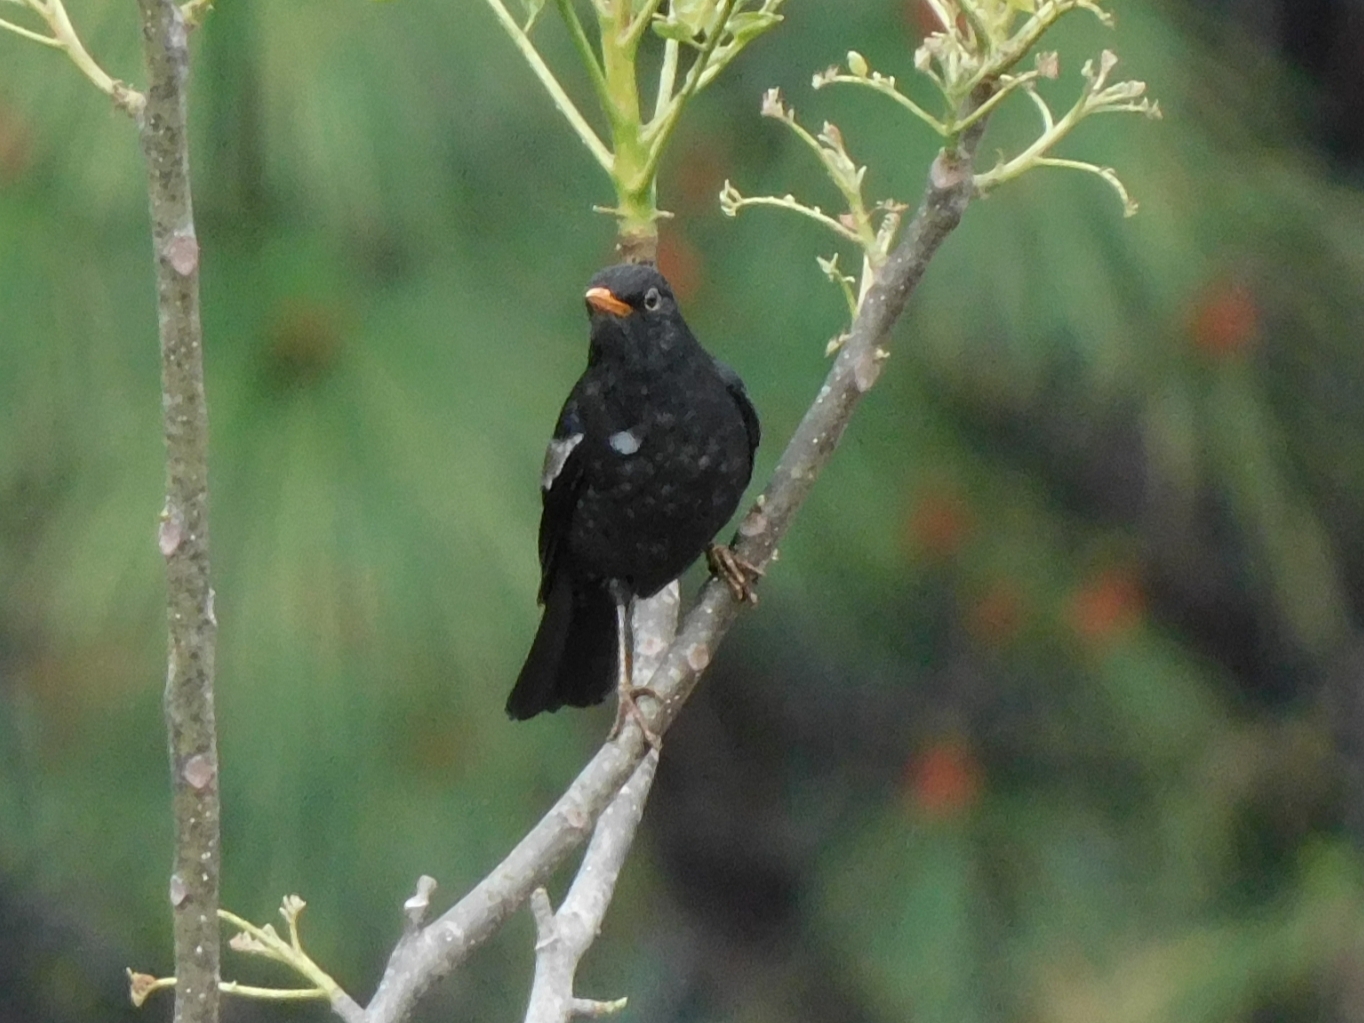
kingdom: Animalia
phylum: Chordata
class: Aves
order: Passeriformes
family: Turdidae
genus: Turdus
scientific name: Turdus boulboul
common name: Grey-winged blackbird
